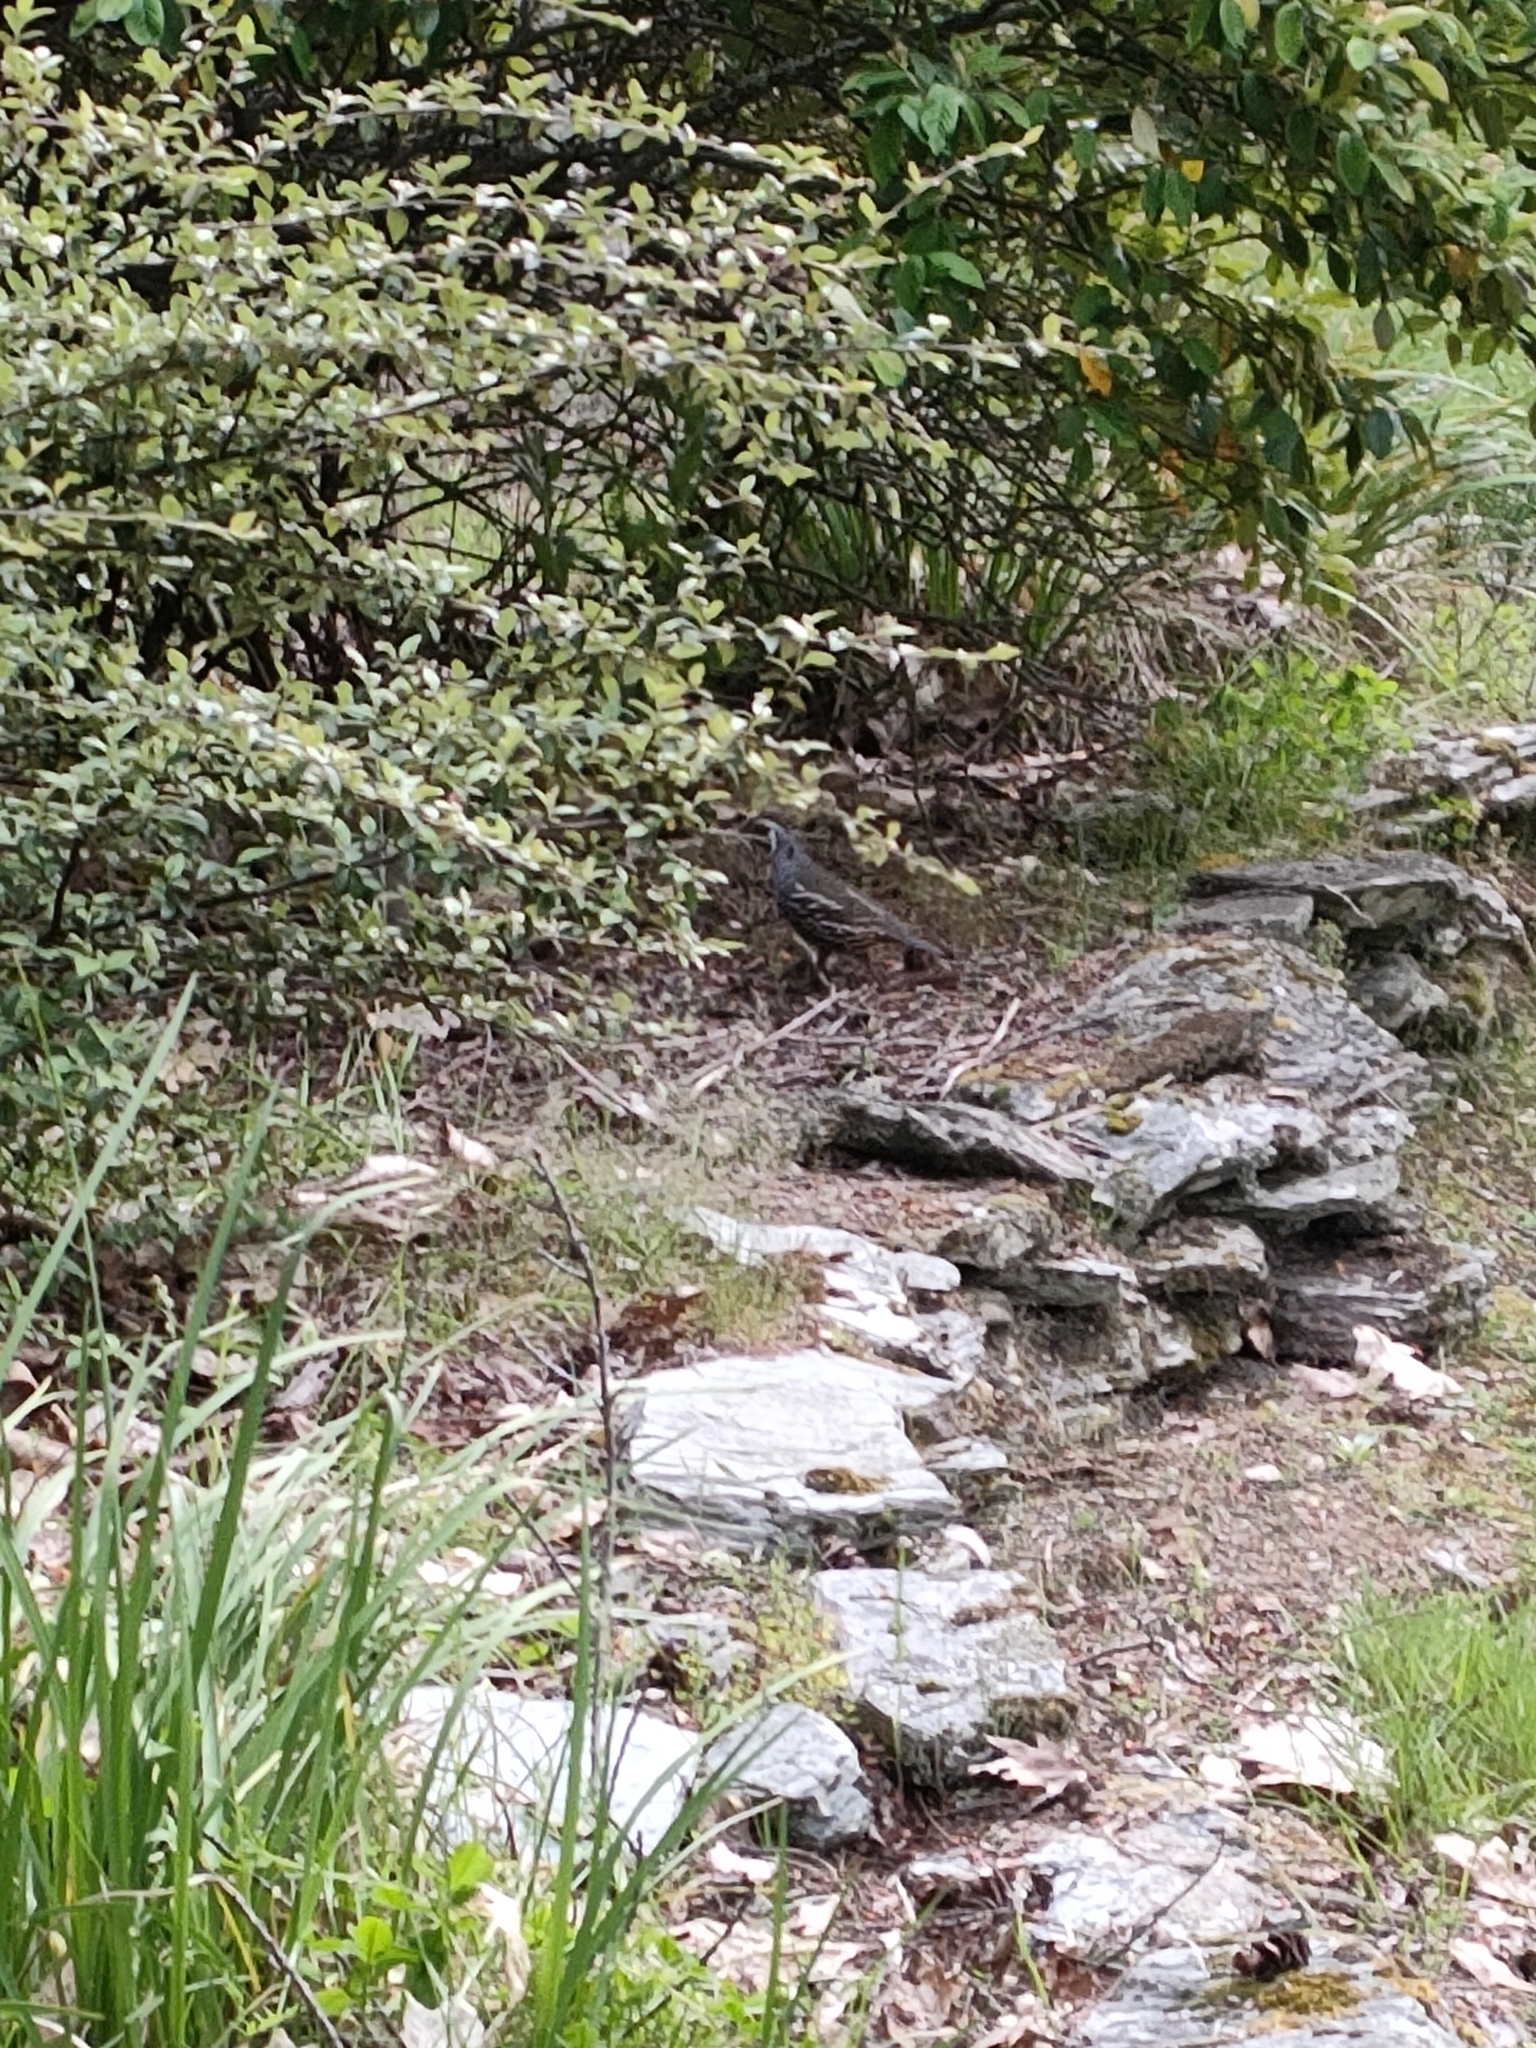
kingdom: Animalia
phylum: Chordata
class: Aves
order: Galliformes
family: Odontophoridae
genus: Callipepla
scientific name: Callipepla californica
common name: California quail
